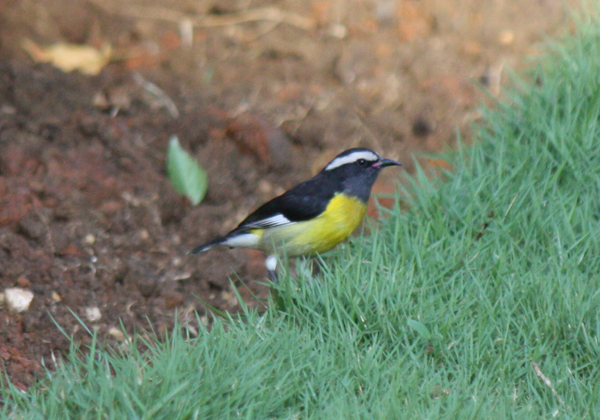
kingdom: Animalia
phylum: Chordata
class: Aves
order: Passeriformes
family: Thraupidae
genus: Coereba
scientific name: Coereba flaveola
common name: Bananaquit
